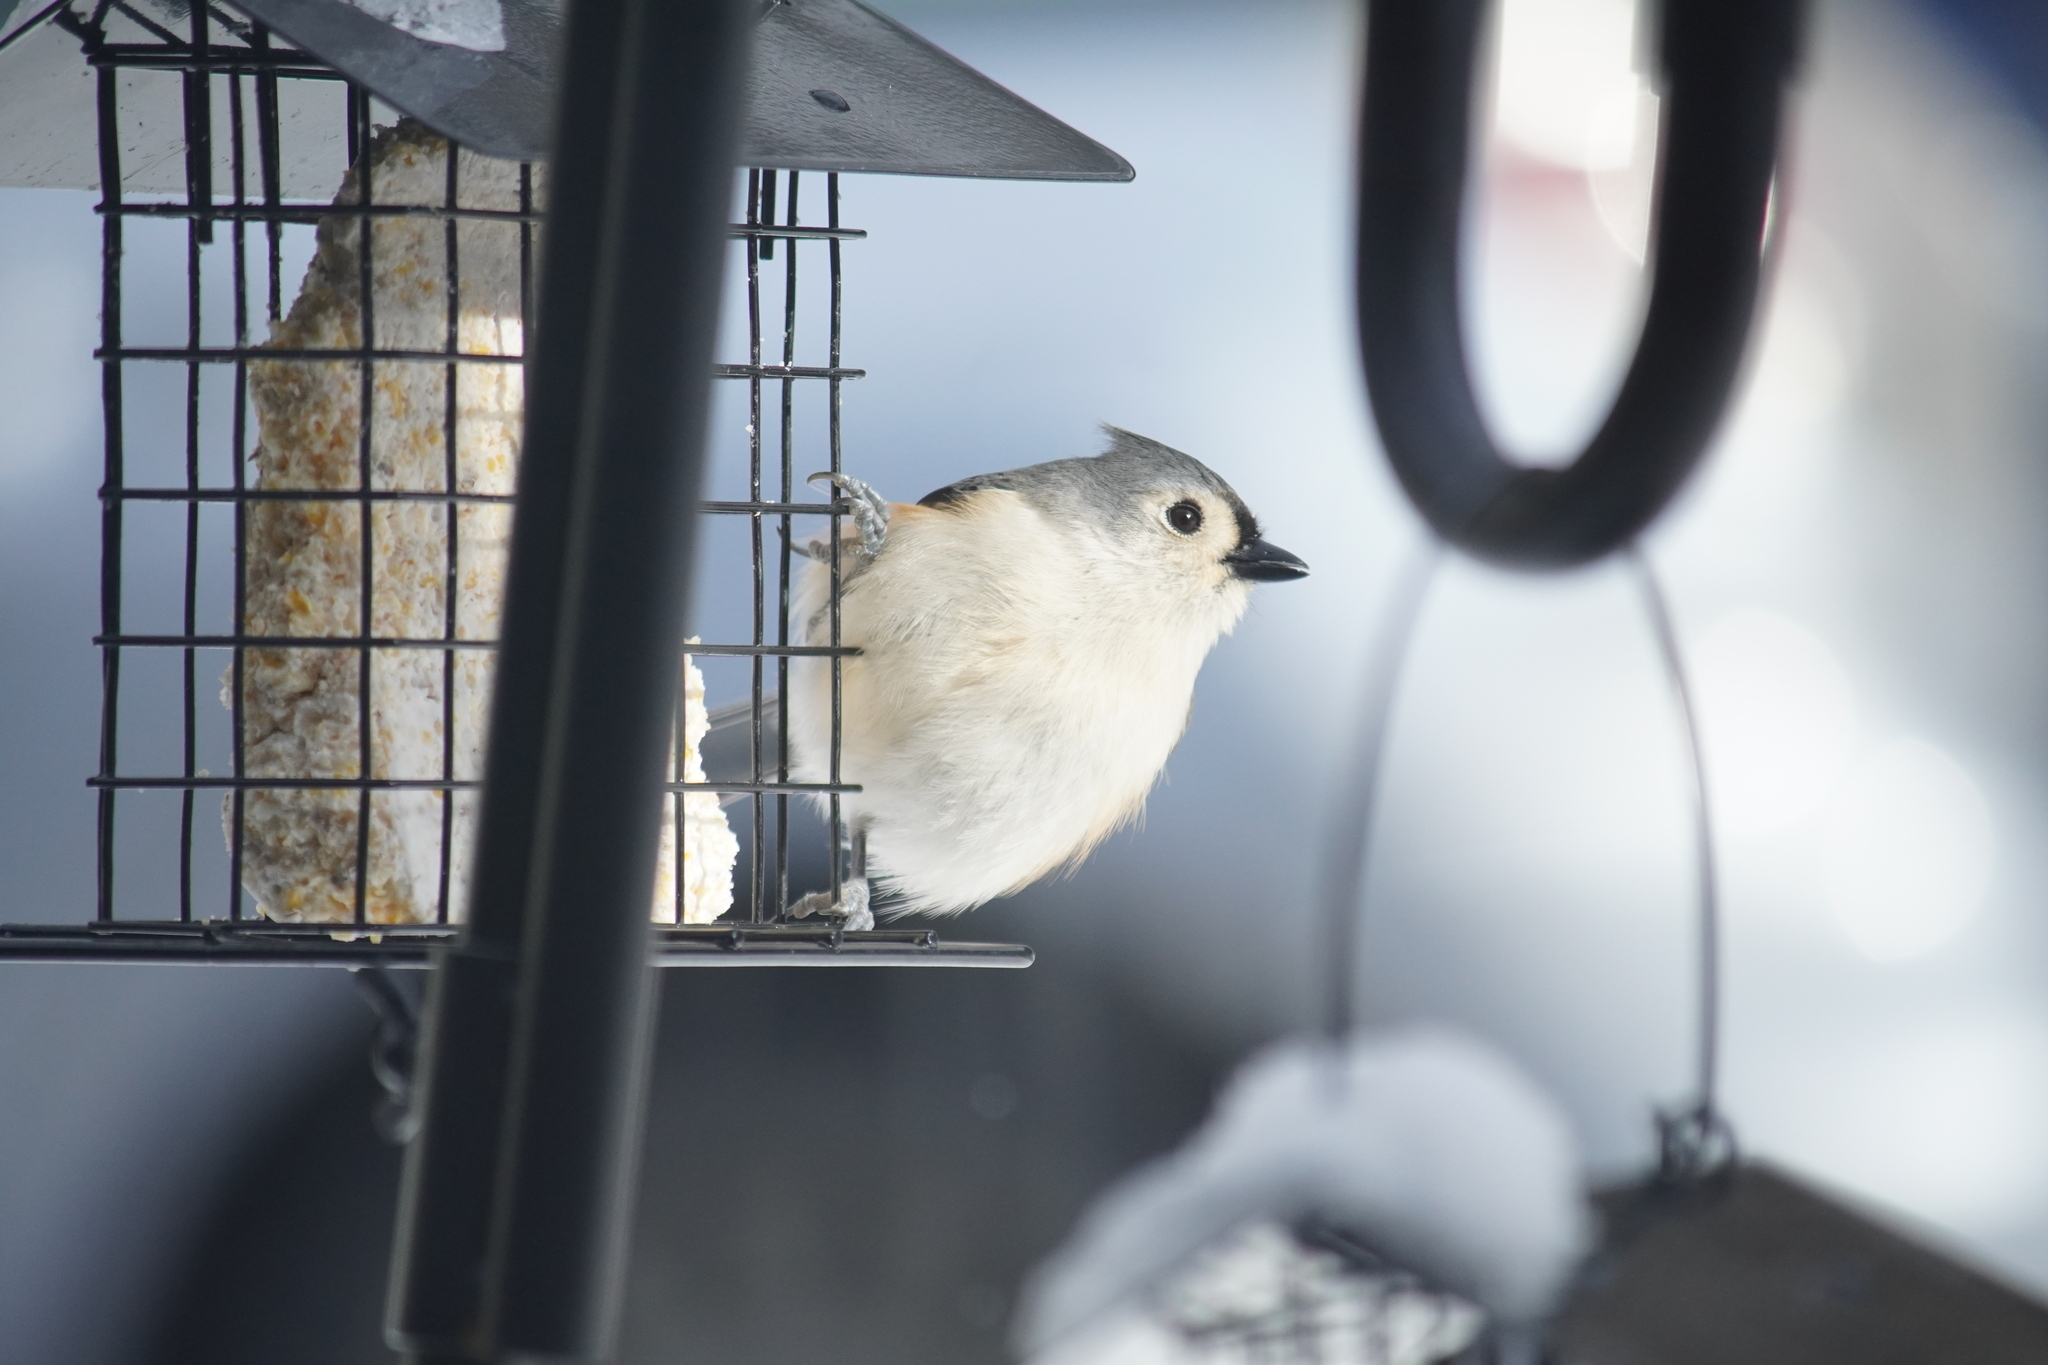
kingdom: Animalia
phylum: Chordata
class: Aves
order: Passeriformes
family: Paridae
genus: Baeolophus
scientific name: Baeolophus bicolor
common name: Tufted titmouse
